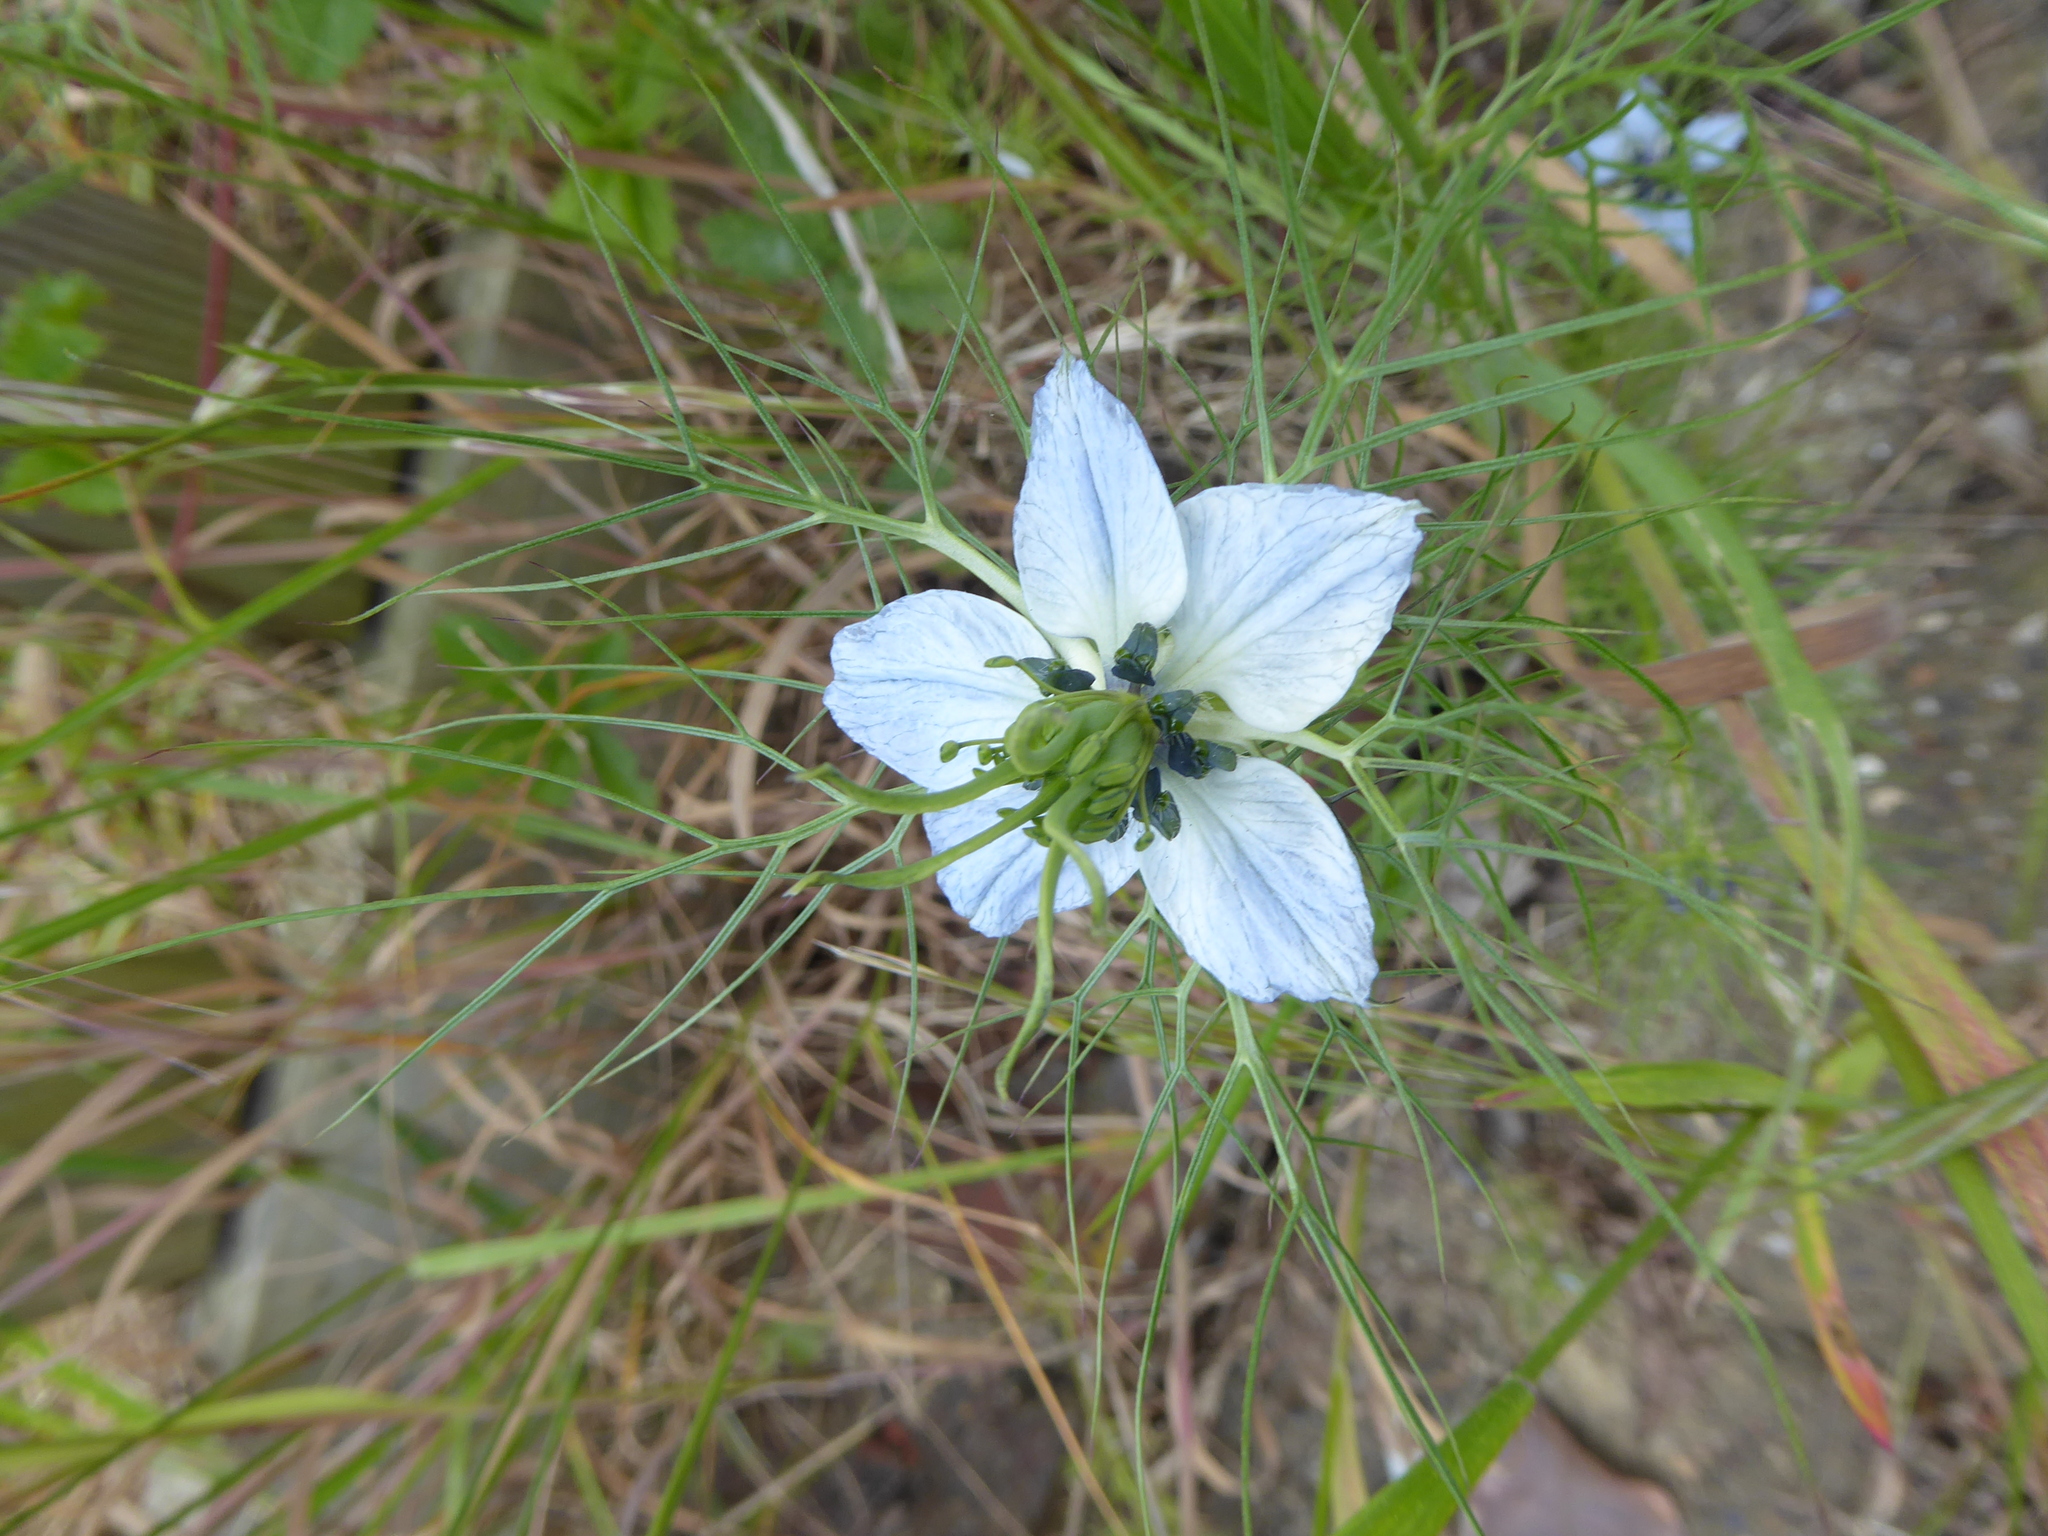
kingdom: Plantae
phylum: Tracheophyta
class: Magnoliopsida
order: Ranunculales
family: Ranunculaceae
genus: Nigella
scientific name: Nigella damascena
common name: Love-in-a-mist
